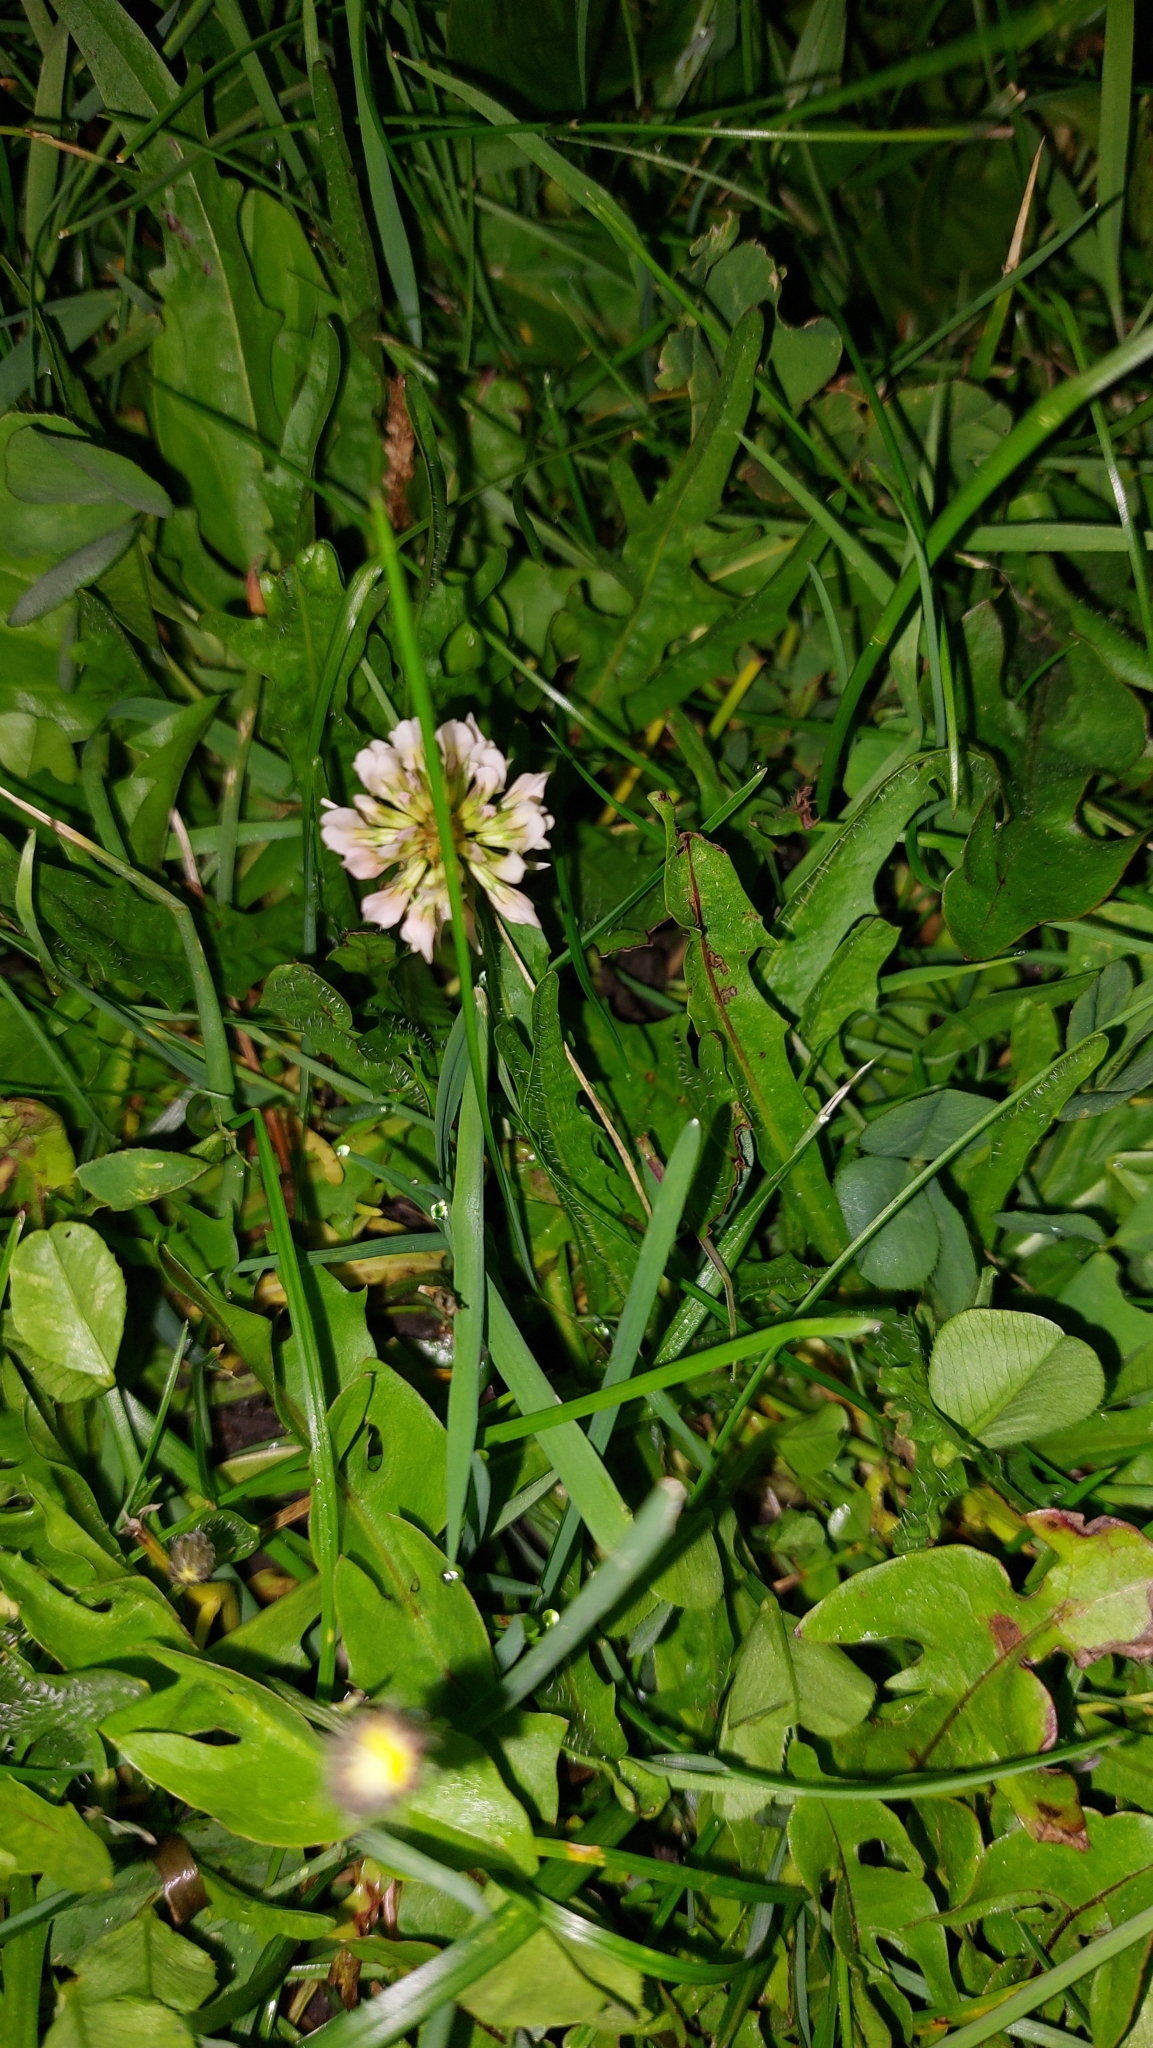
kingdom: Plantae
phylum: Tracheophyta
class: Magnoliopsida
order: Fabales
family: Fabaceae
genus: Trifolium
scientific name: Trifolium repens
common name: White clover
